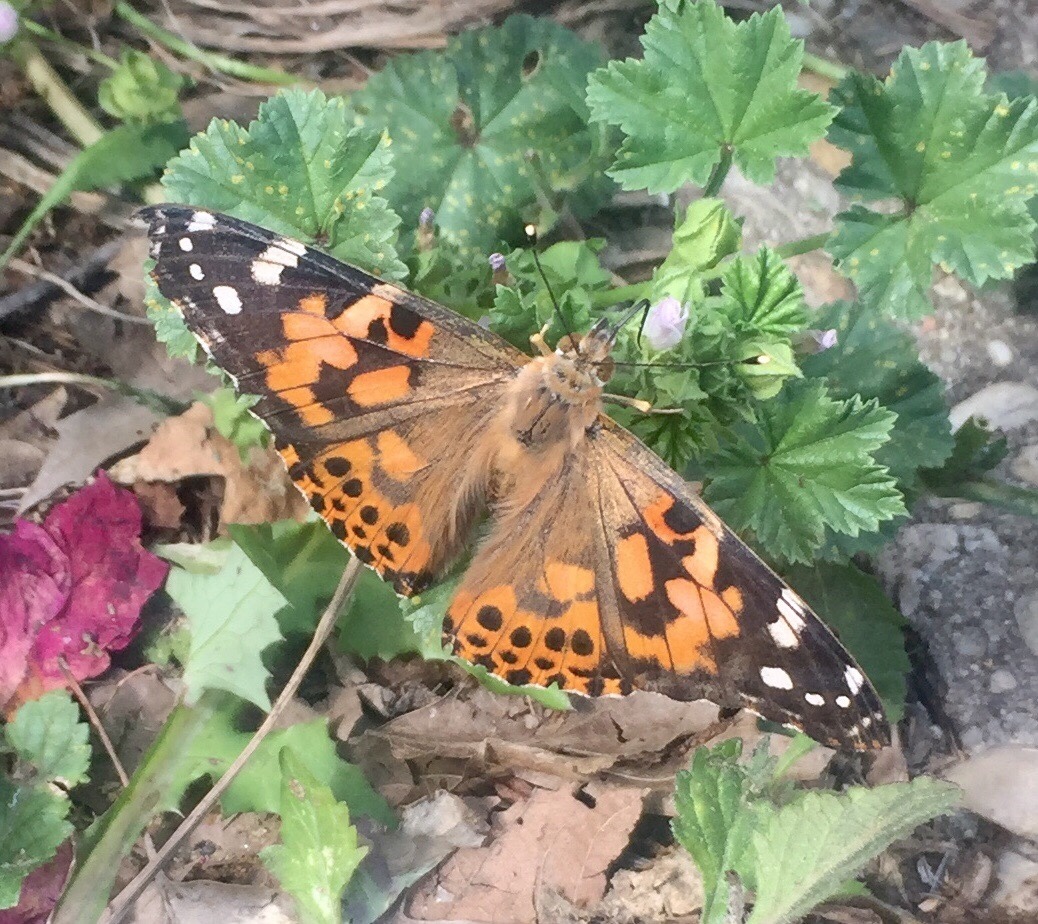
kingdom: Animalia
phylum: Arthropoda
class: Insecta
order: Lepidoptera
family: Nymphalidae
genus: Vanessa
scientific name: Vanessa cardui
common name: Painted lady
